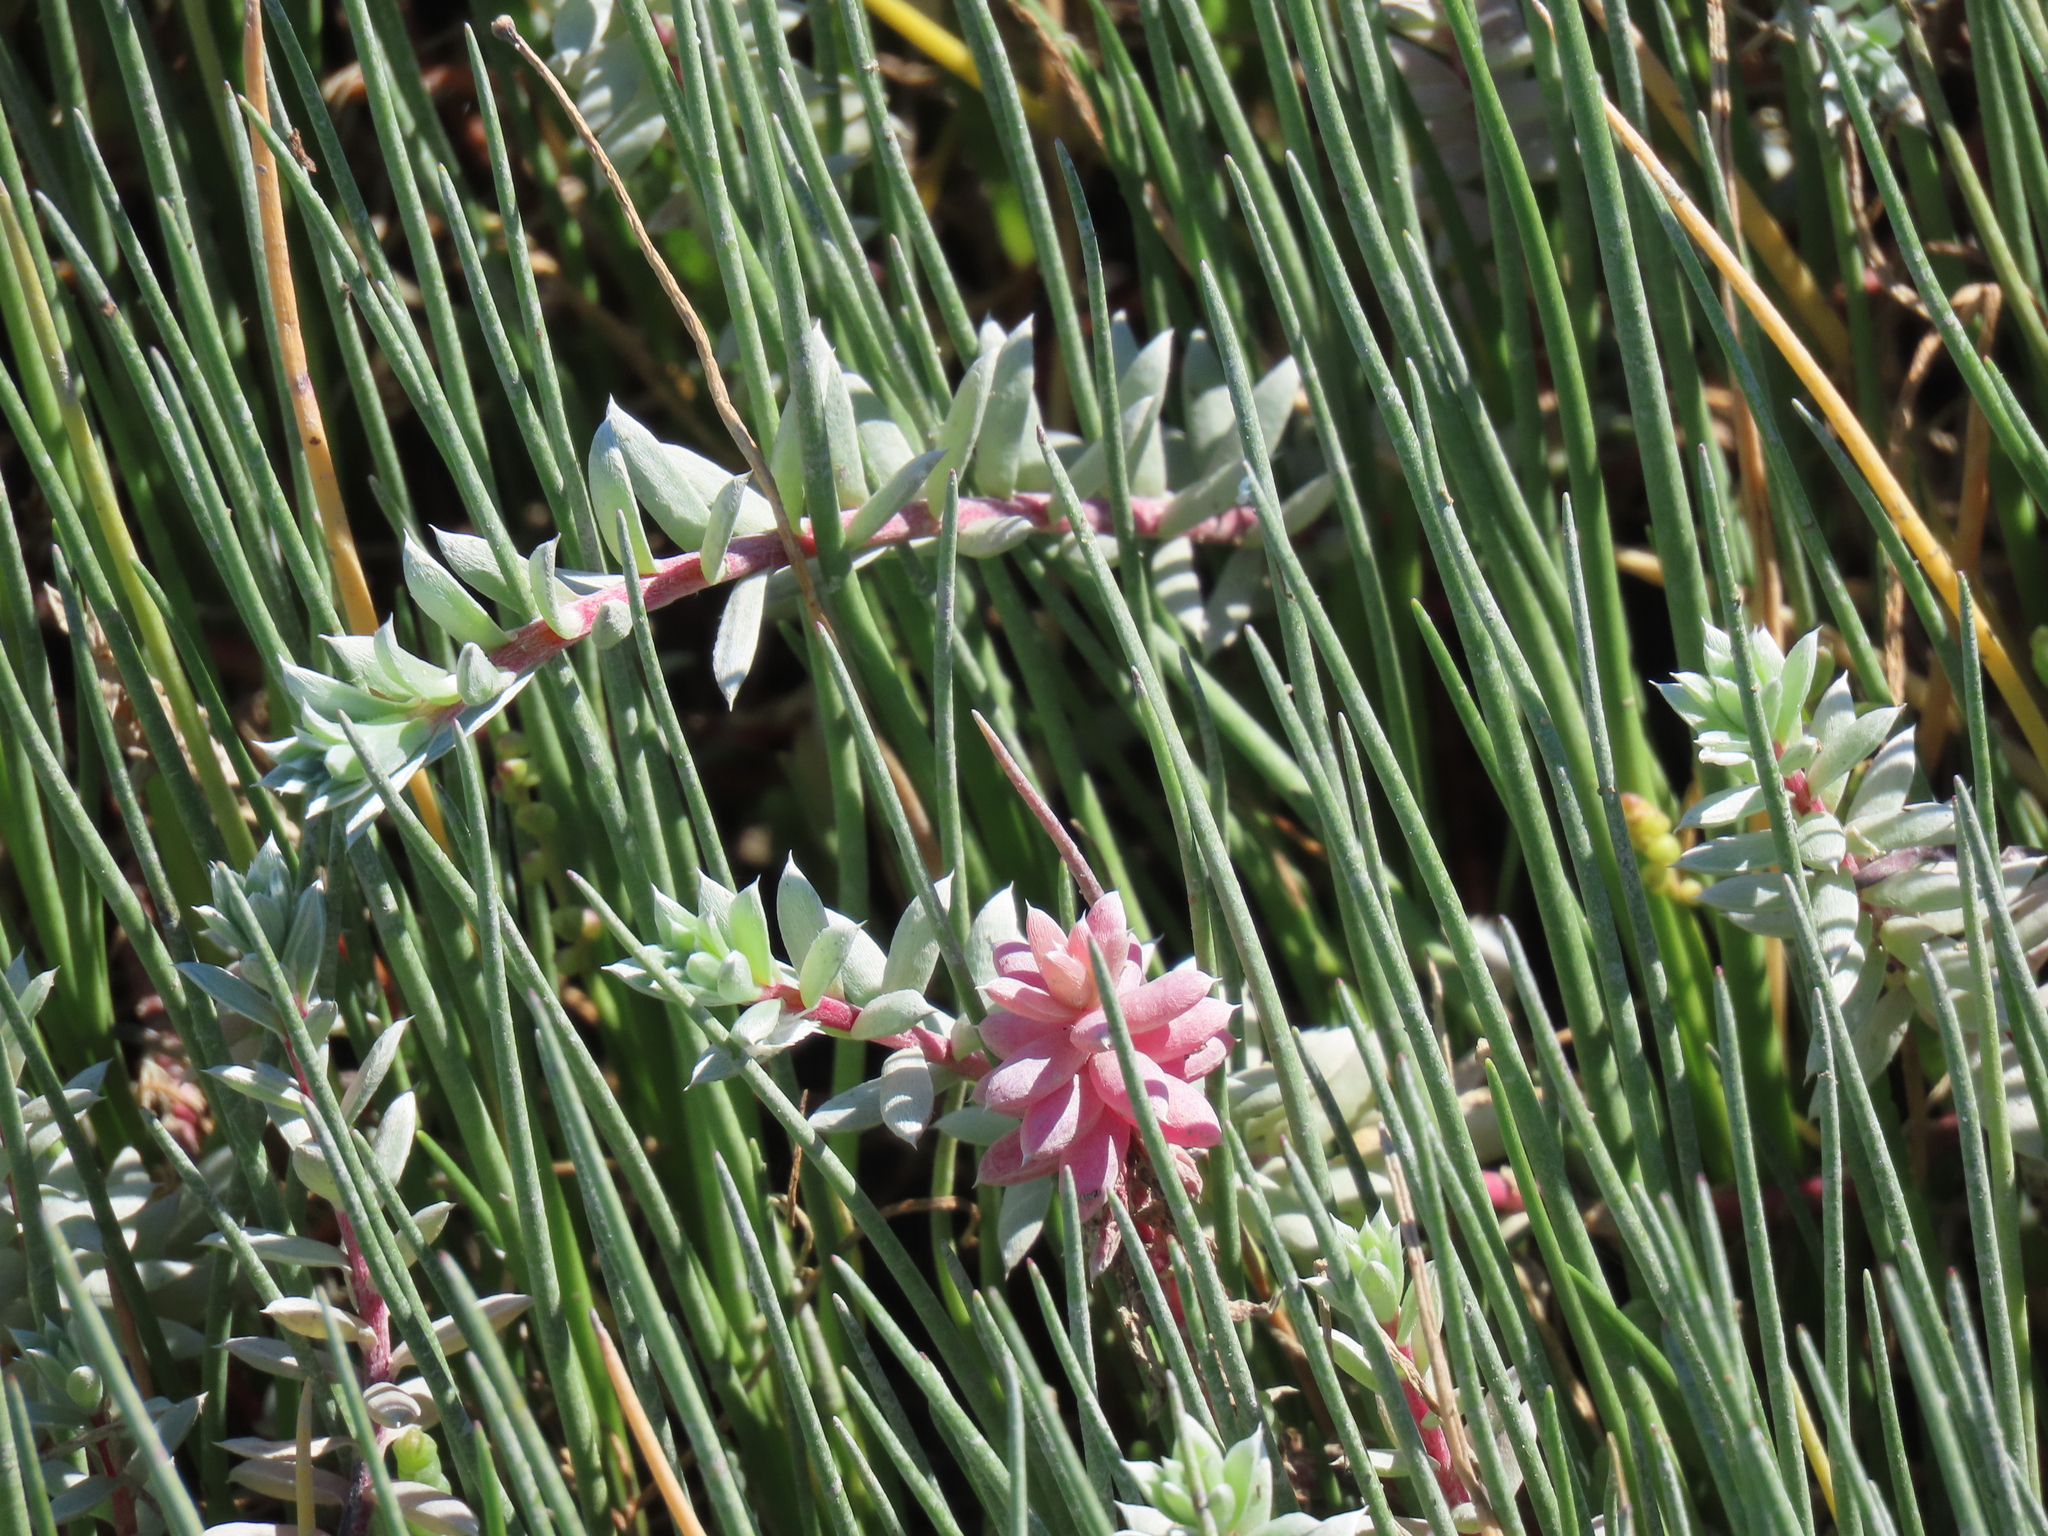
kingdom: Plantae
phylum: Tracheophyta
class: Magnoliopsida
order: Caryophyllales
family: Amaranthaceae
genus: Chenolea
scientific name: Chenolea diffusa
